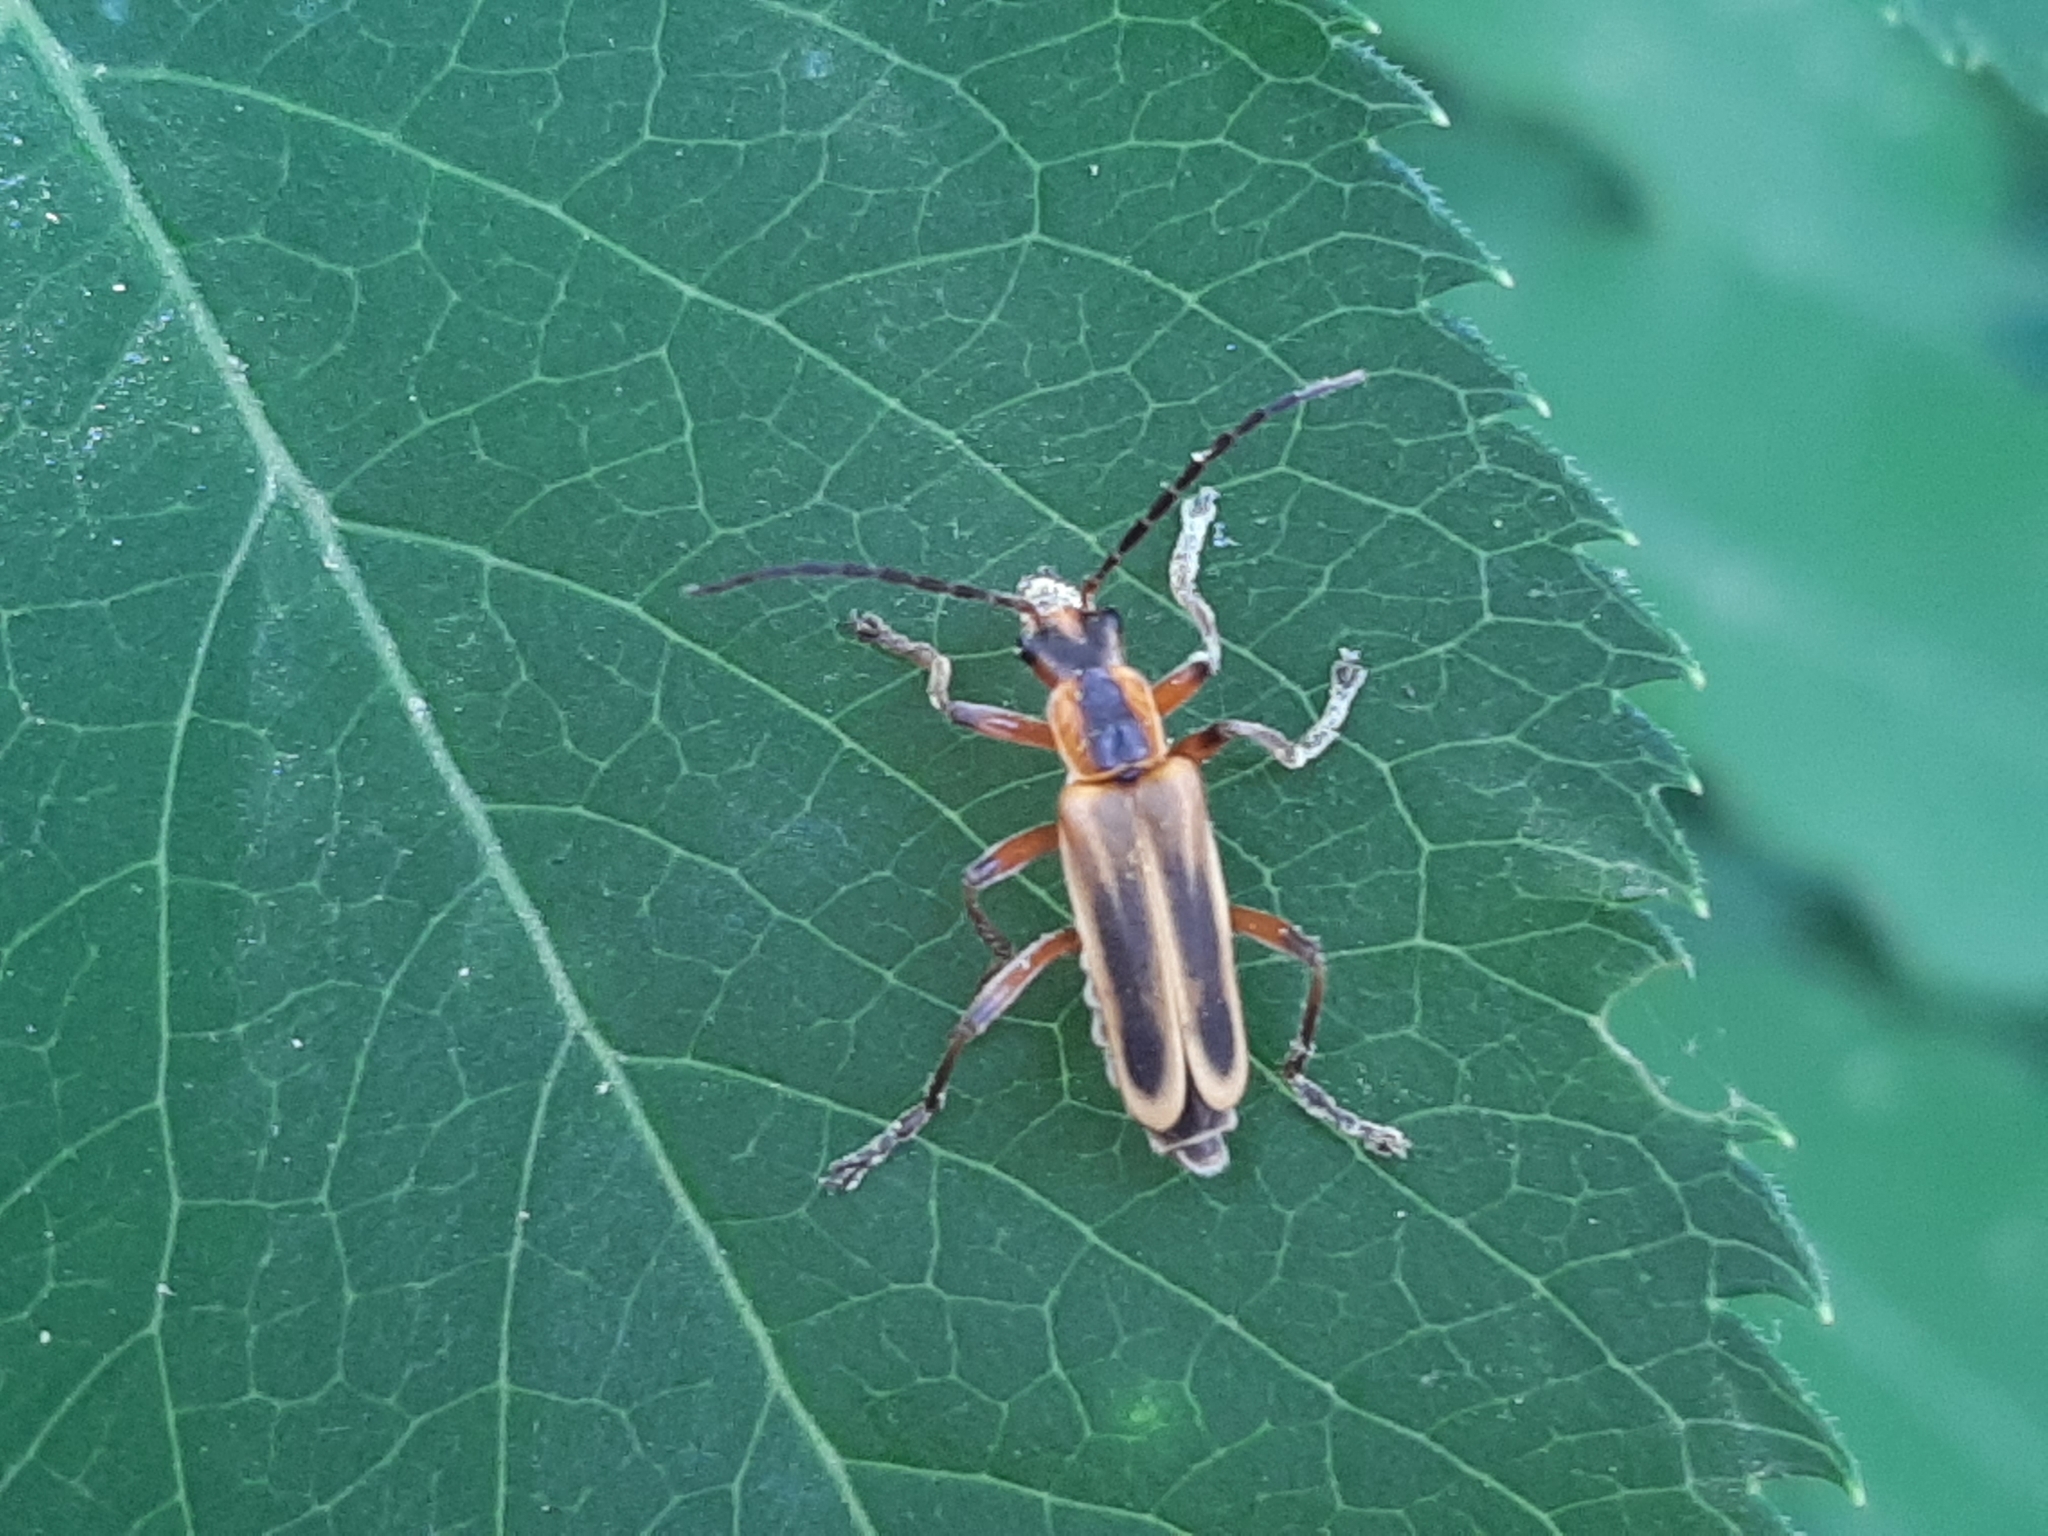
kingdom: Animalia
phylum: Arthropoda
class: Insecta
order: Coleoptera
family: Cantharidae
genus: Chauliognathus
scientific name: Chauliognathus marginatus
